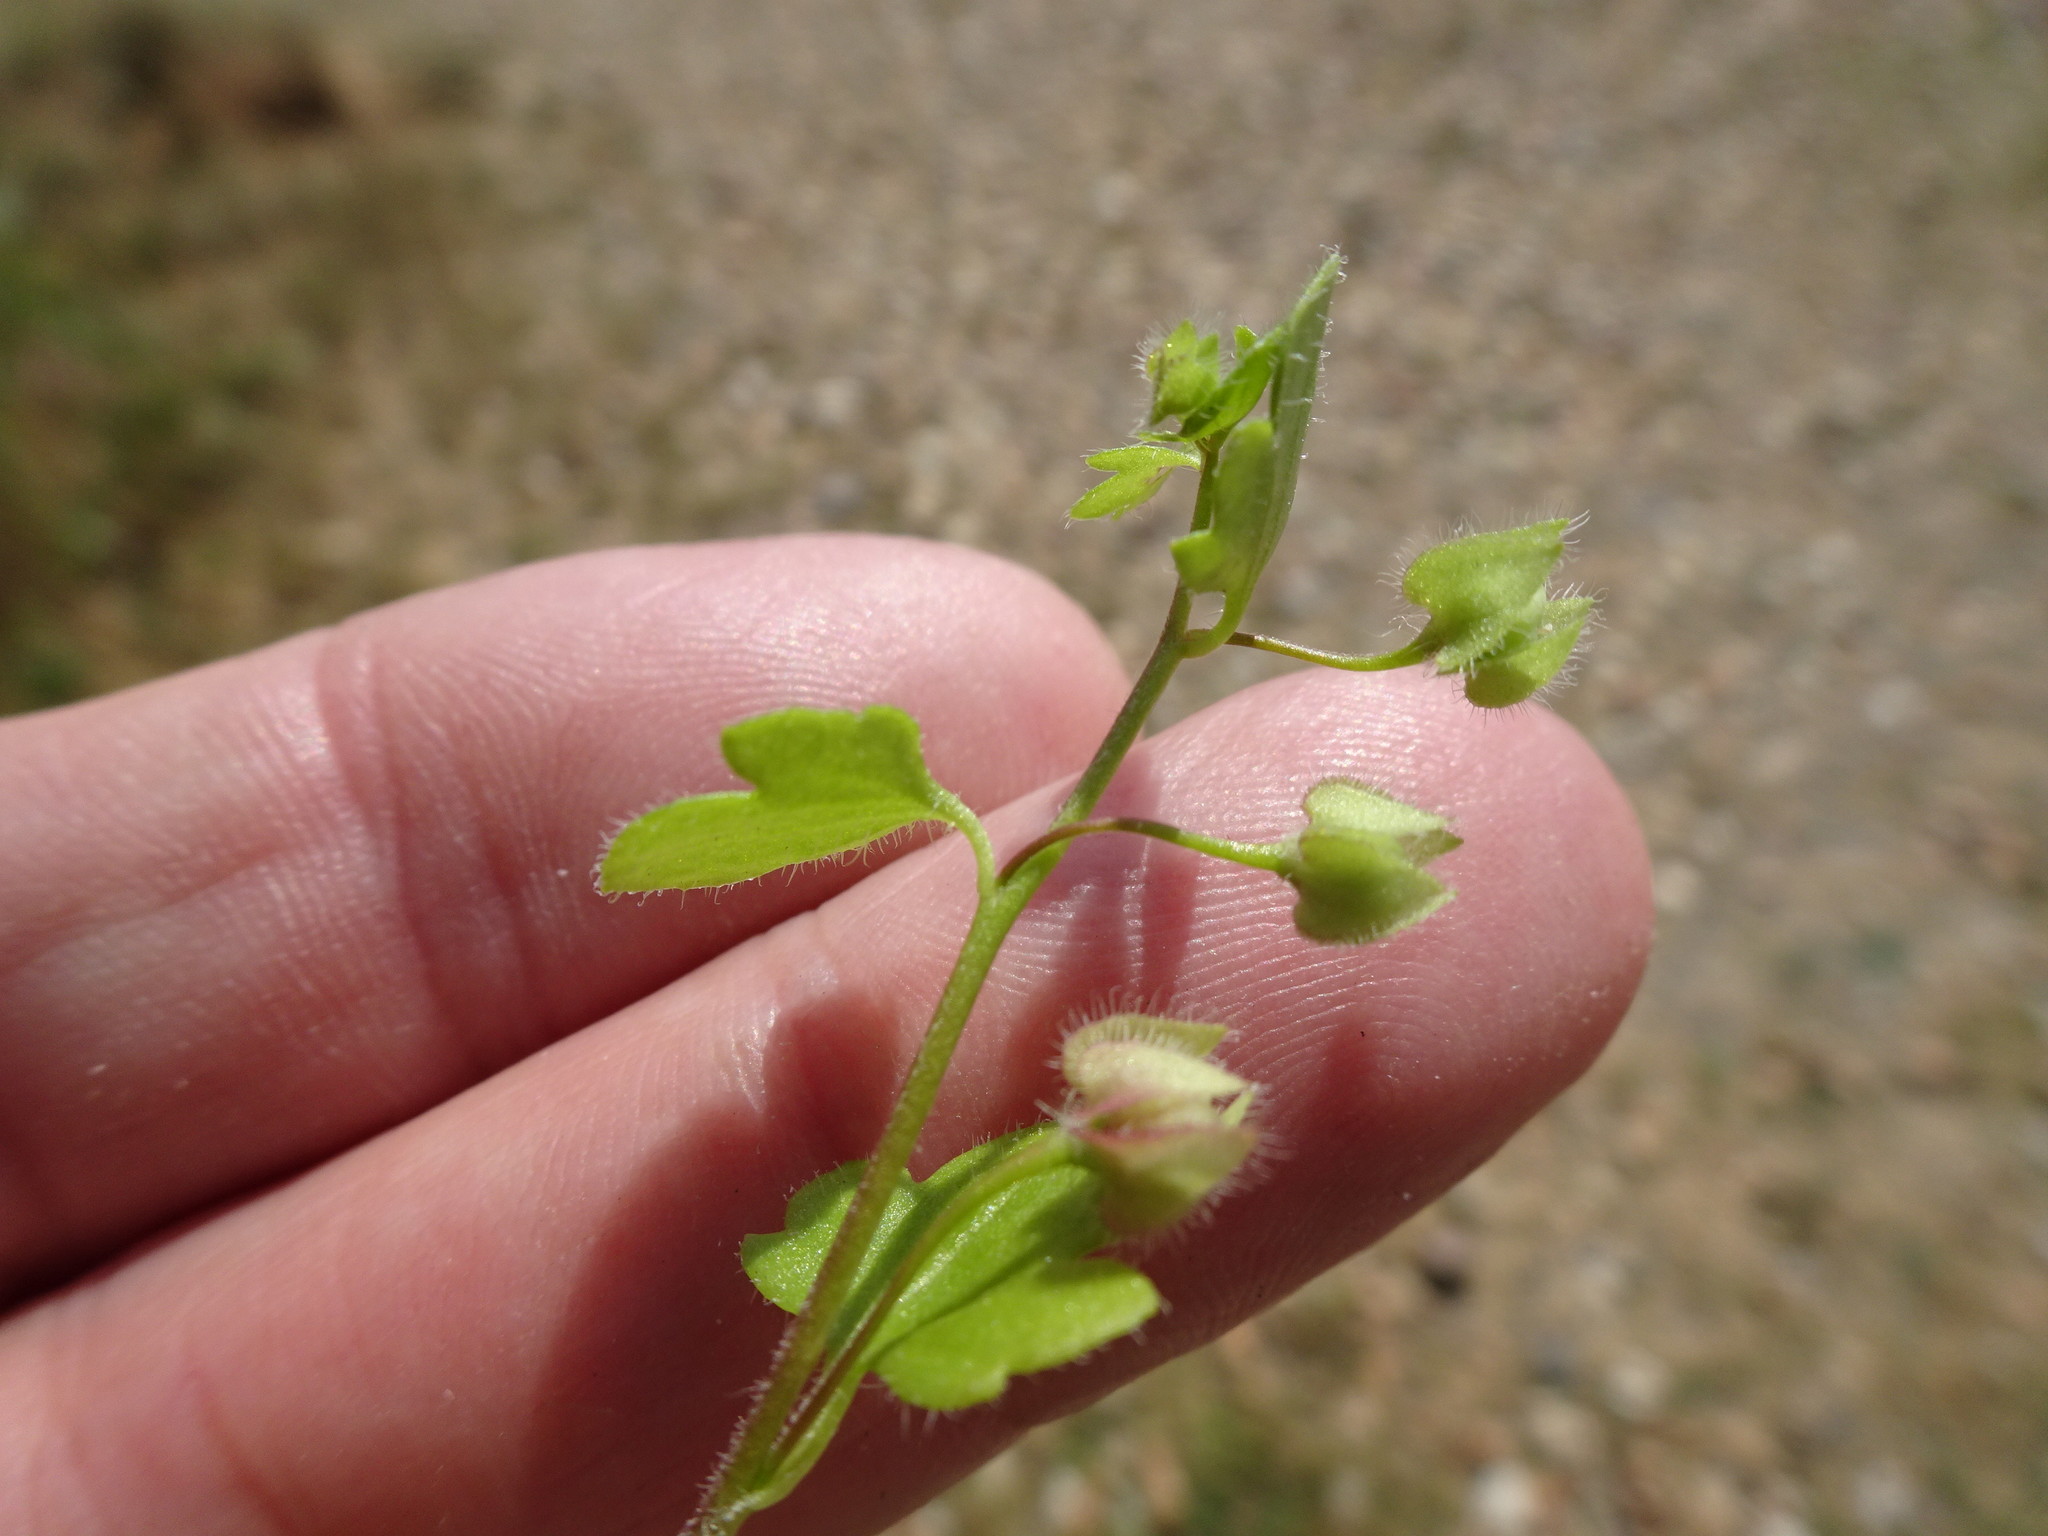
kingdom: Plantae
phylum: Tracheophyta
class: Magnoliopsida
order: Lamiales
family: Plantaginaceae
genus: Veronica
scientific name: Veronica hederifolia
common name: Ivy-leaved speedwell
